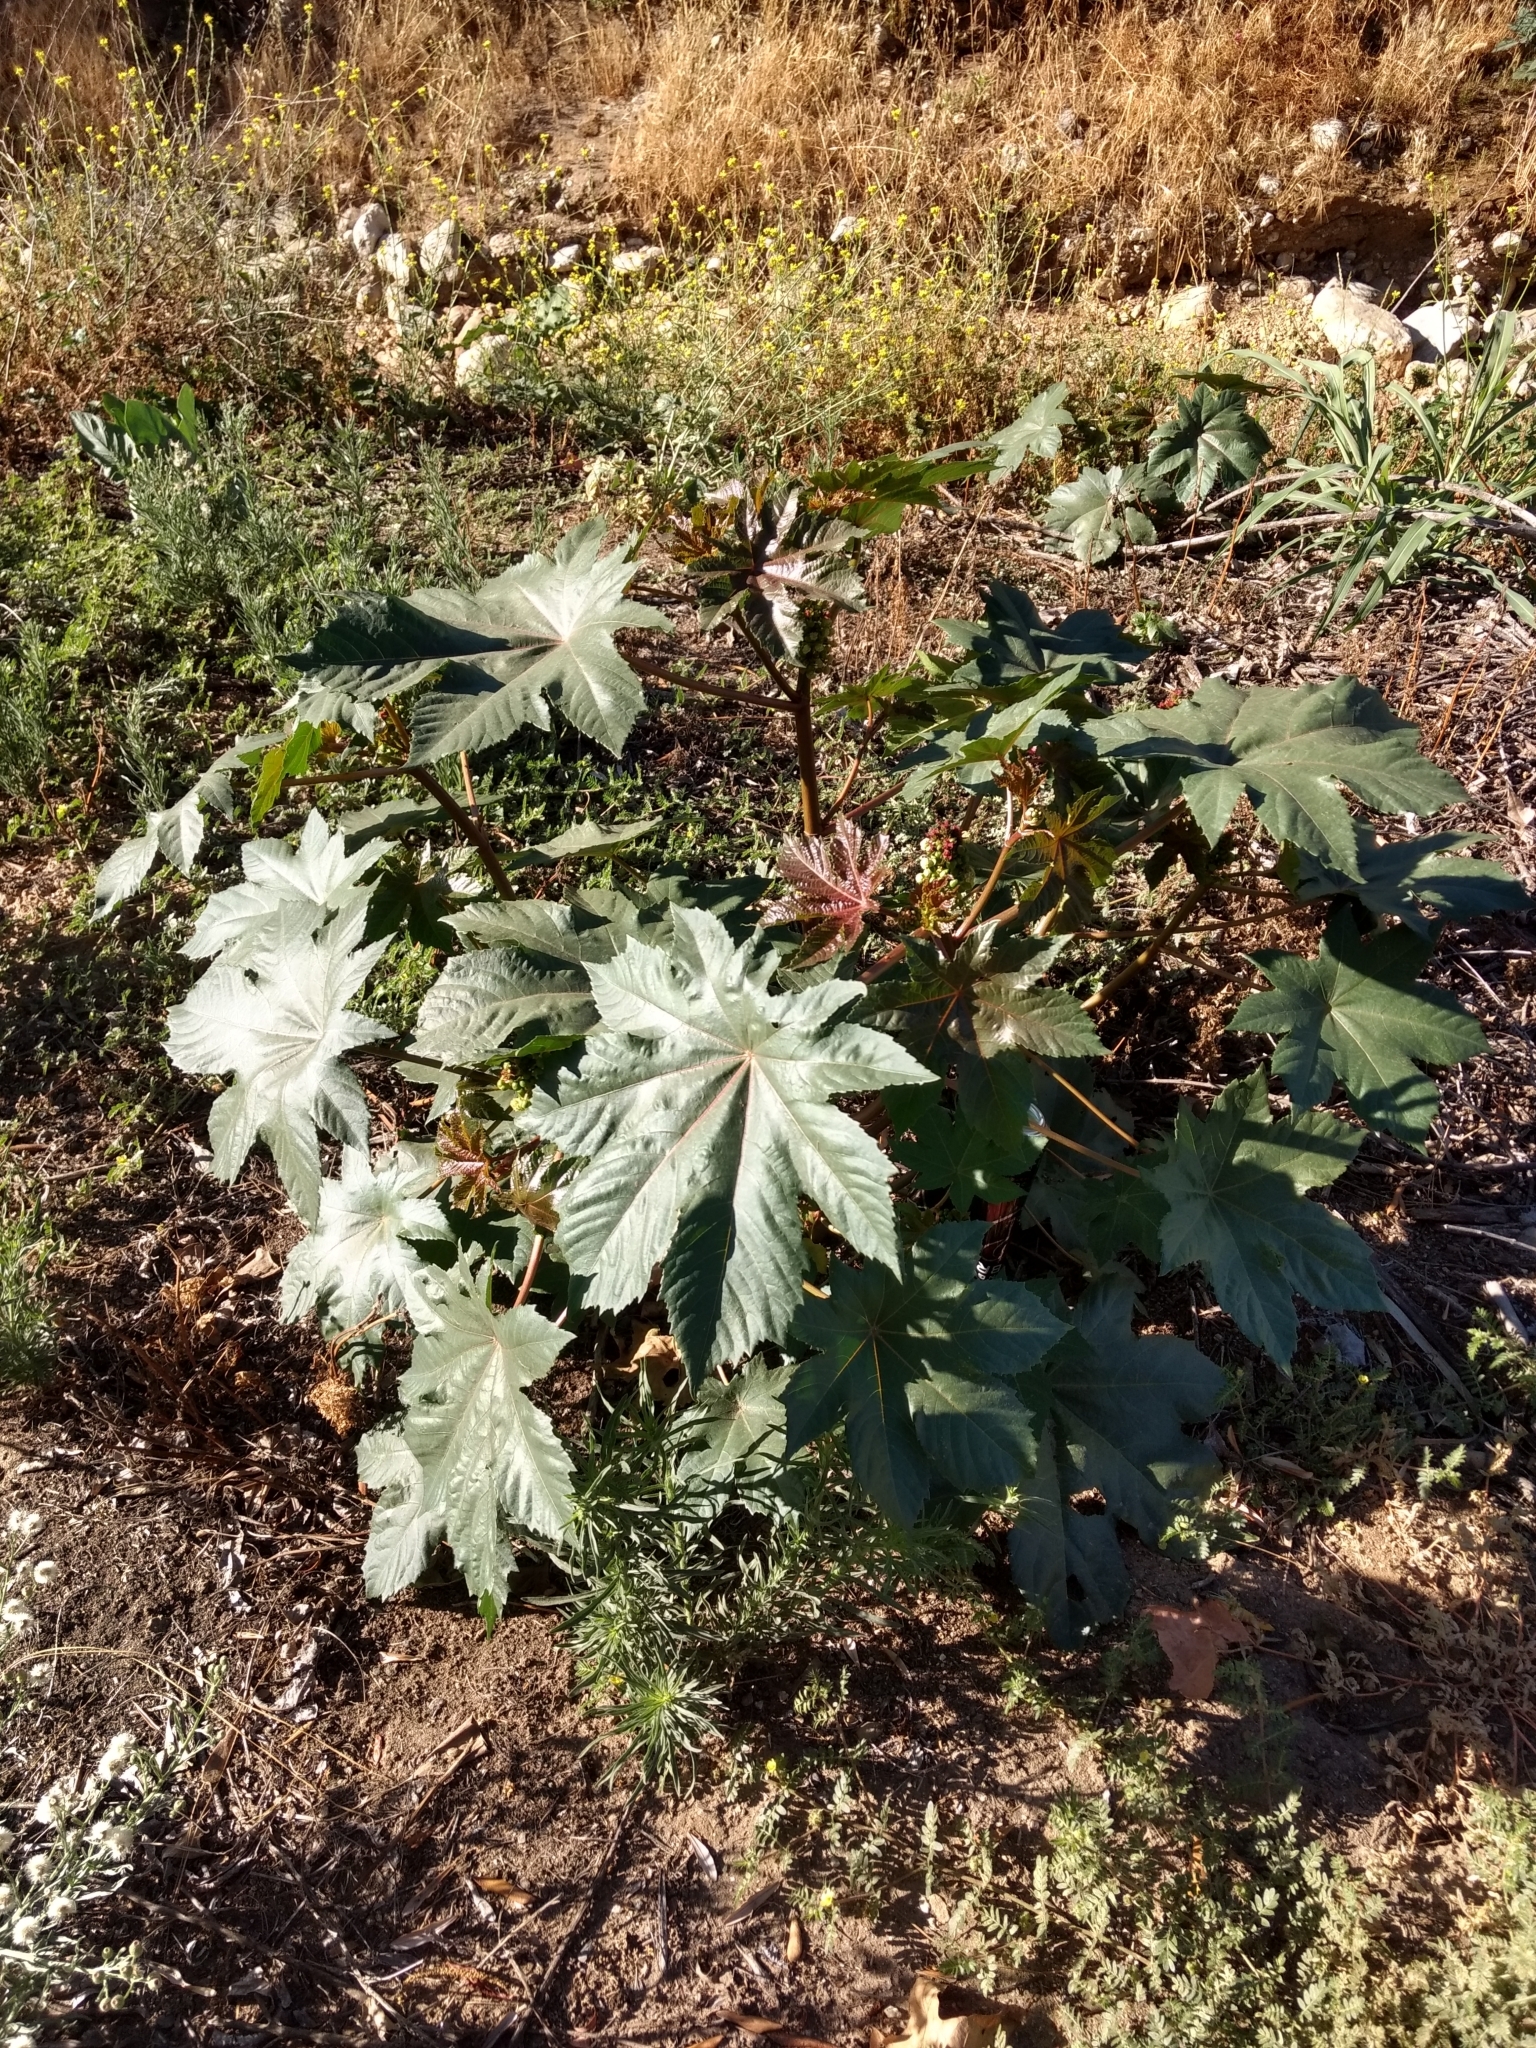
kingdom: Plantae
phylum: Tracheophyta
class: Magnoliopsida
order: Malpighiales
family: Euphorbiaceae
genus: Ricinus
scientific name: Ricinus communis
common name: Castor-oil-plant
